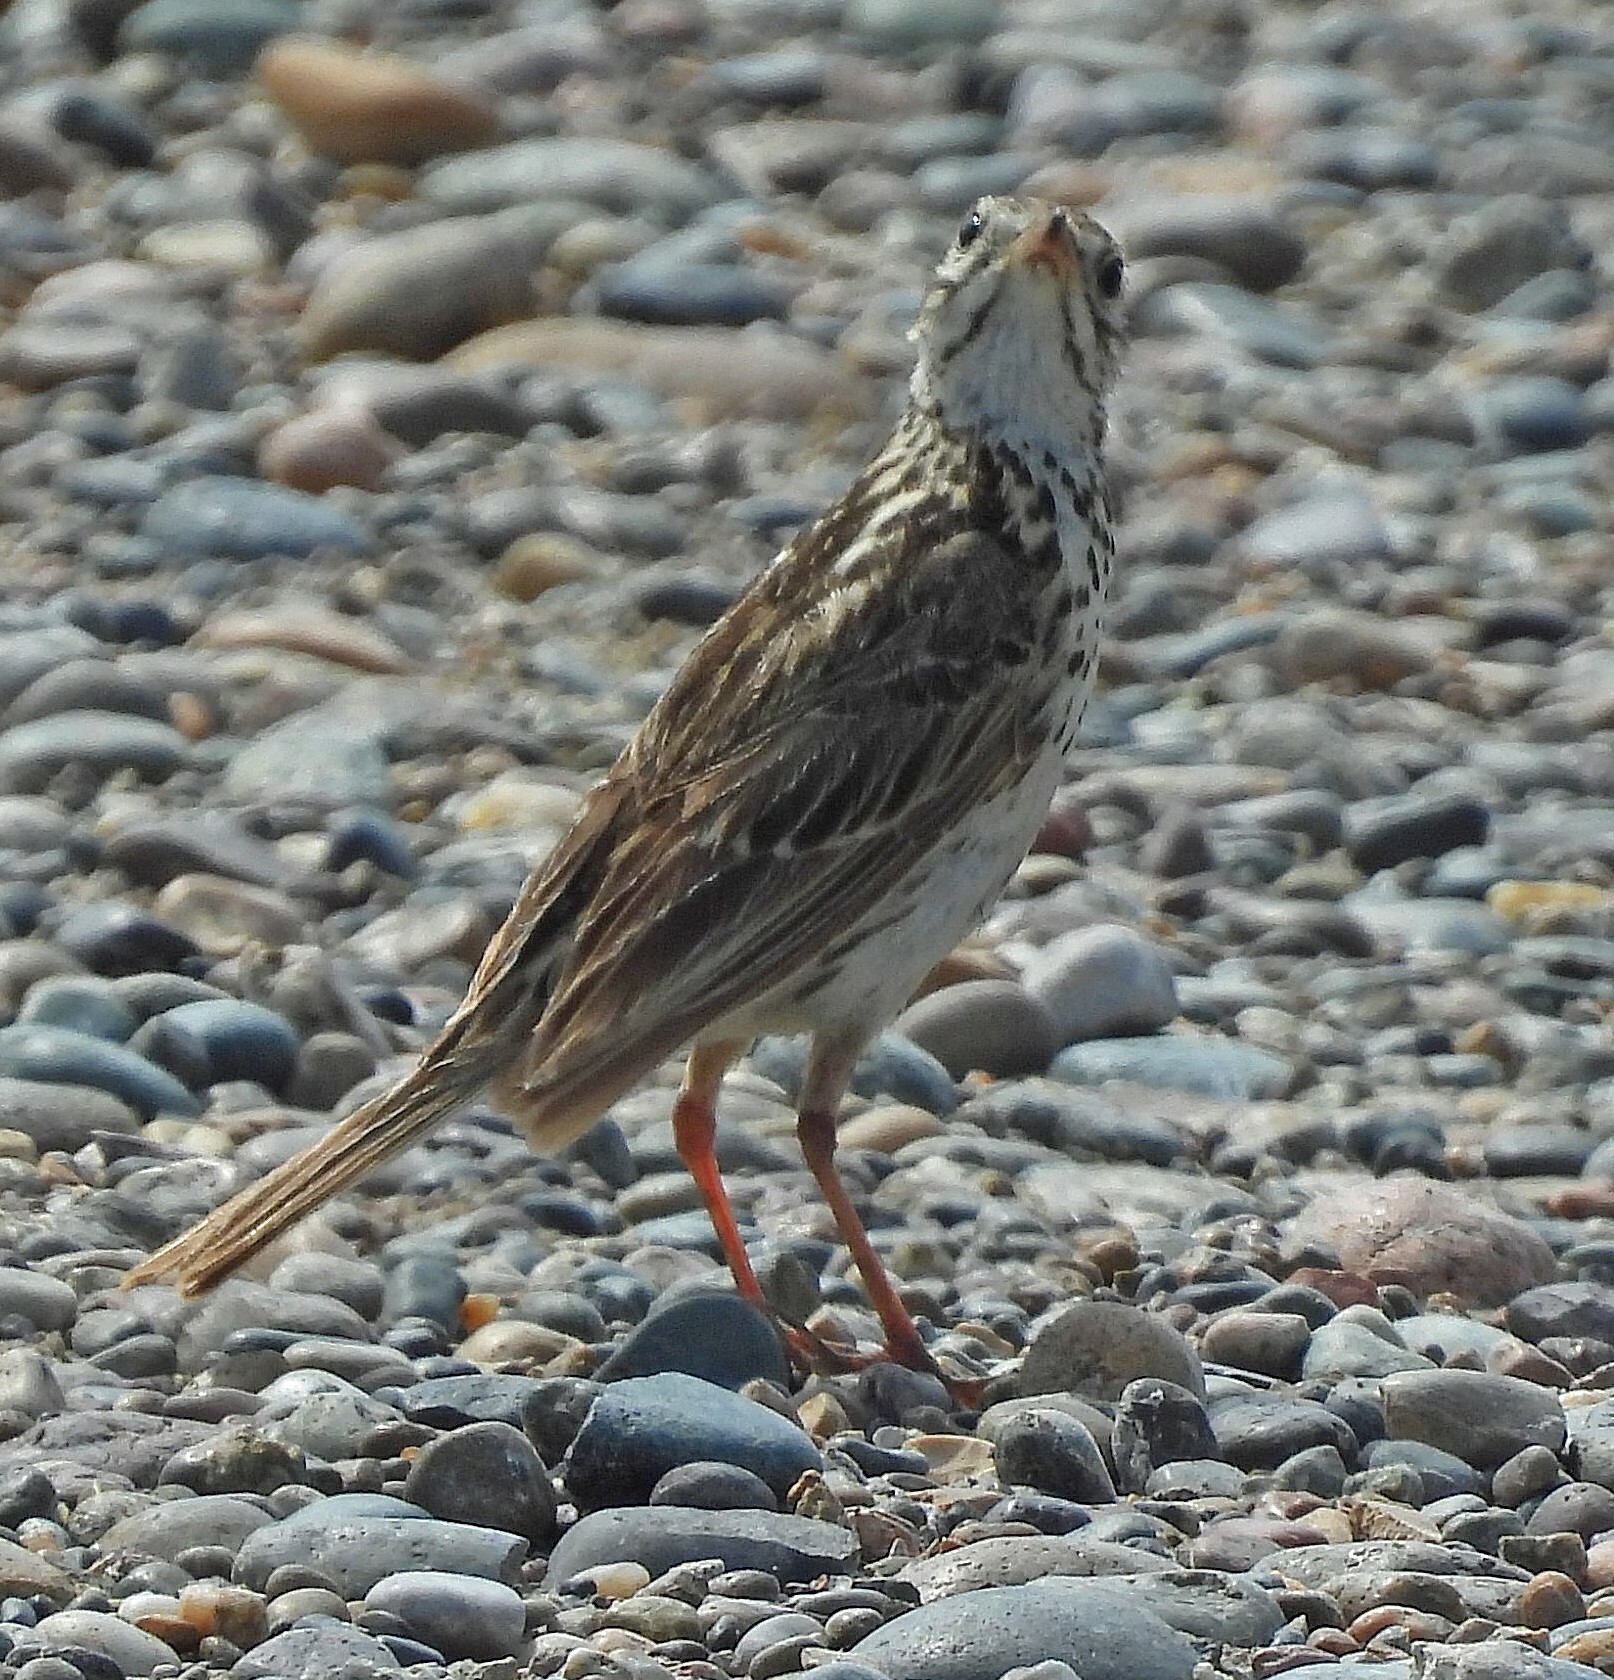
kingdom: Animalia
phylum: Chordata
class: Aves
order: Passeriformes
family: Motacillidae
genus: Anthus
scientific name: Anthus correndera
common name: Correndera pipit
